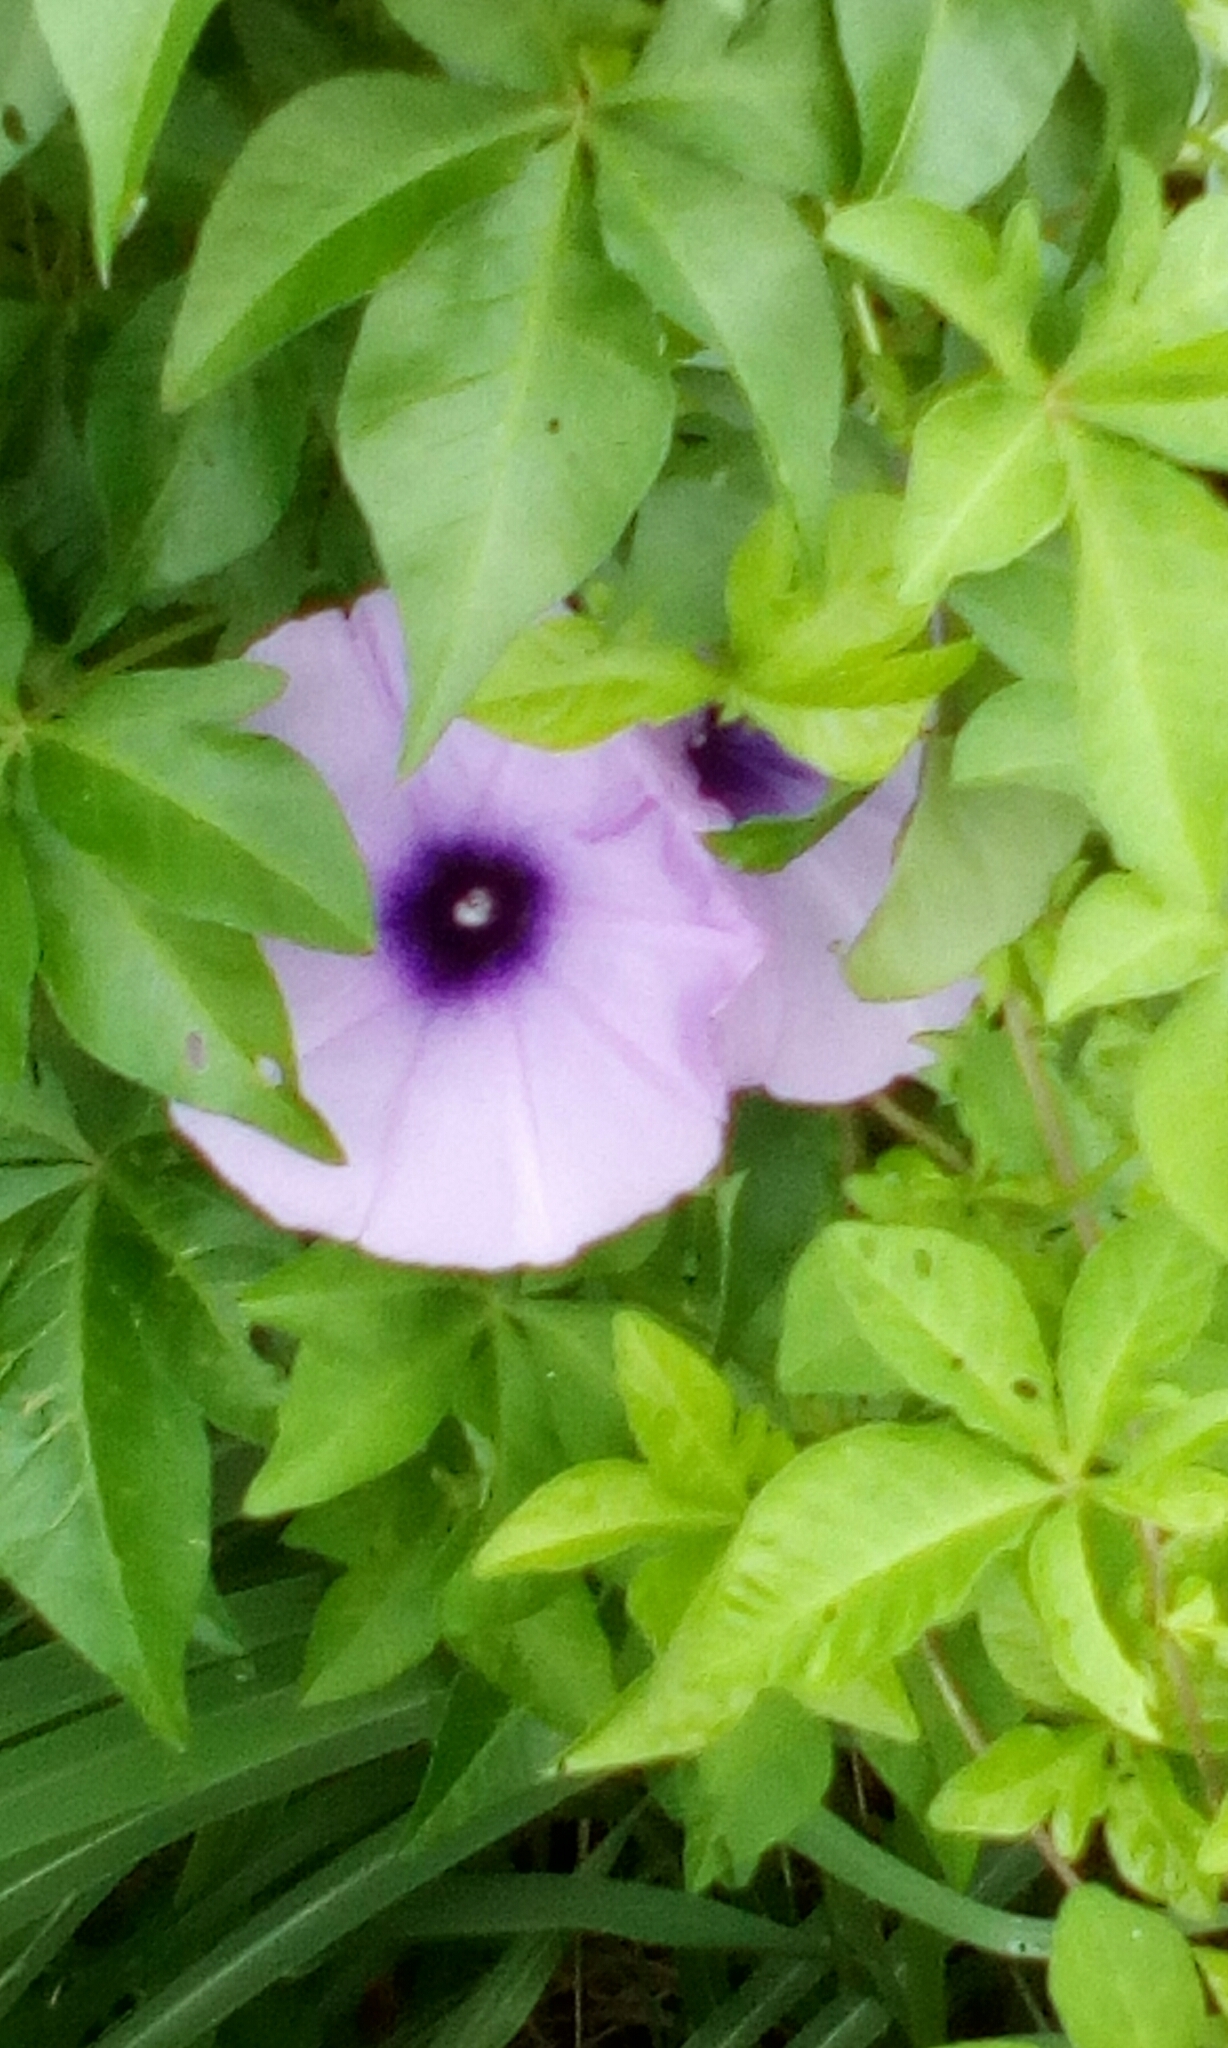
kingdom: Plantae
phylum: Tracheophyta
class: Magnoliopsida
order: Solanales
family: Convolvulaceae
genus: Ipomoea
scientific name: Ipomoea cairica
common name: Mile a minute vine
